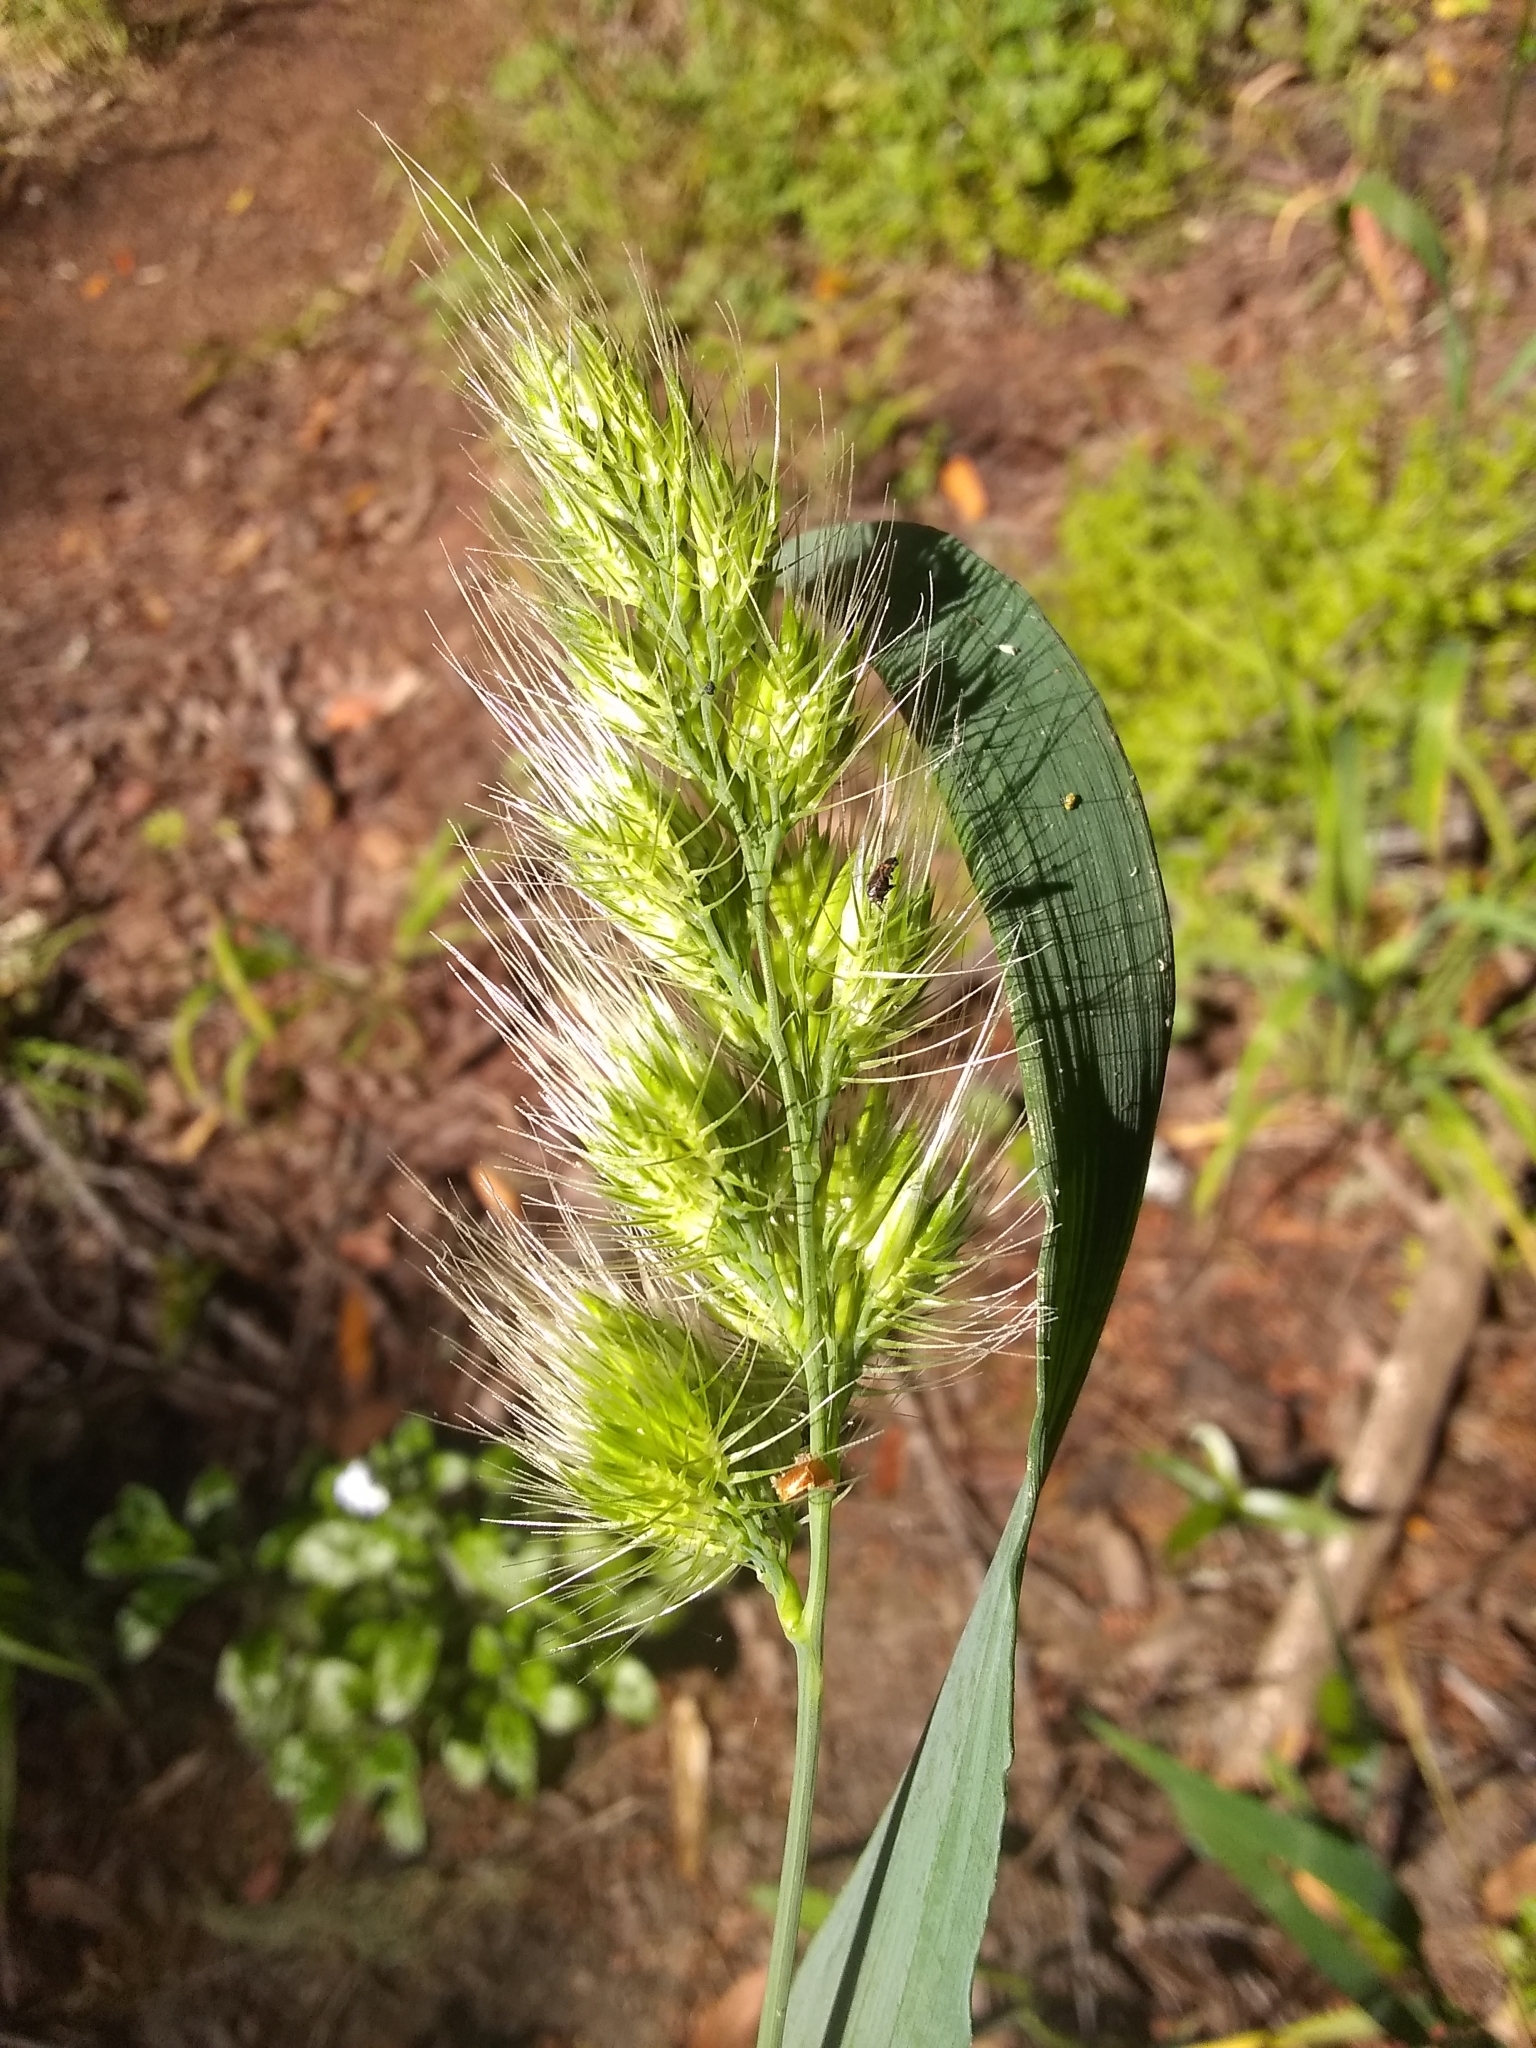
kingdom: Plantae
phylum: Tracheophyta
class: Liliopsida
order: Poales
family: Poaceae
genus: Cynosurus
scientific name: Cynosurus echinatus
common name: Rough dog's-tail
